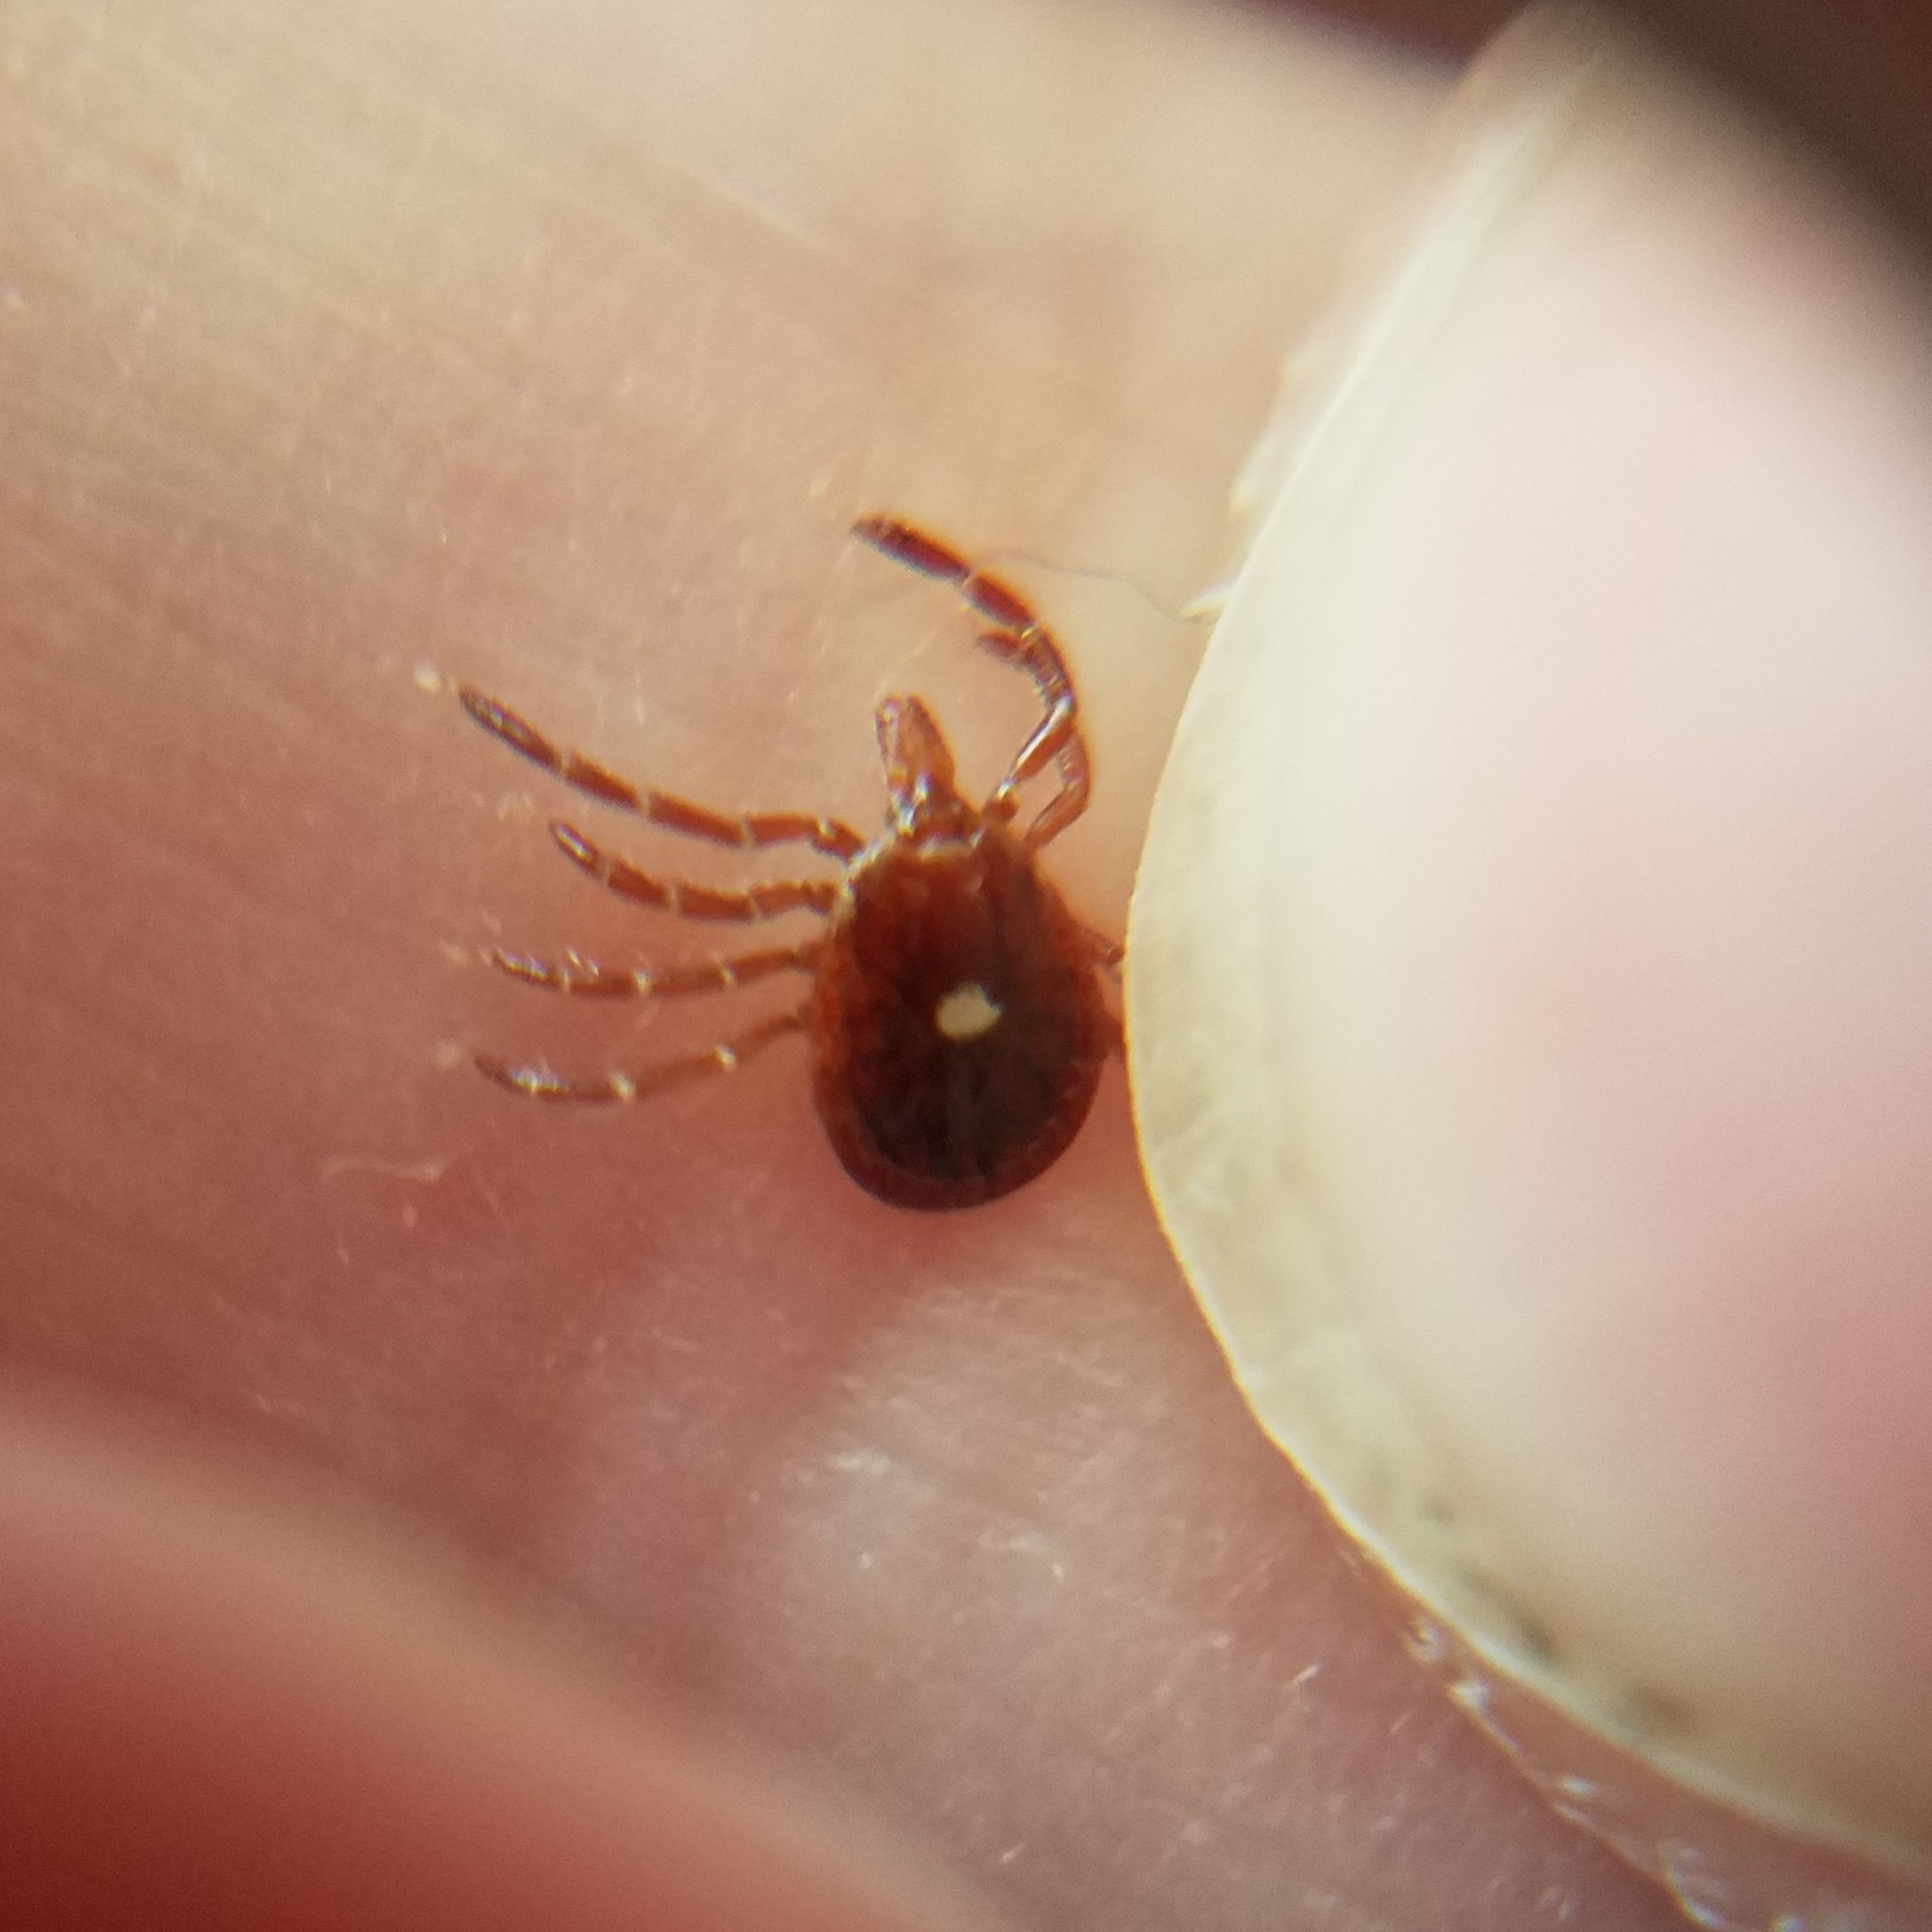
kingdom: Animalia
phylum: Arthropoda
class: Arachnida
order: Ixodida
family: Ixodidae
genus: Amblyomma
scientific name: Amblyomma americanum
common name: Lone star tick
